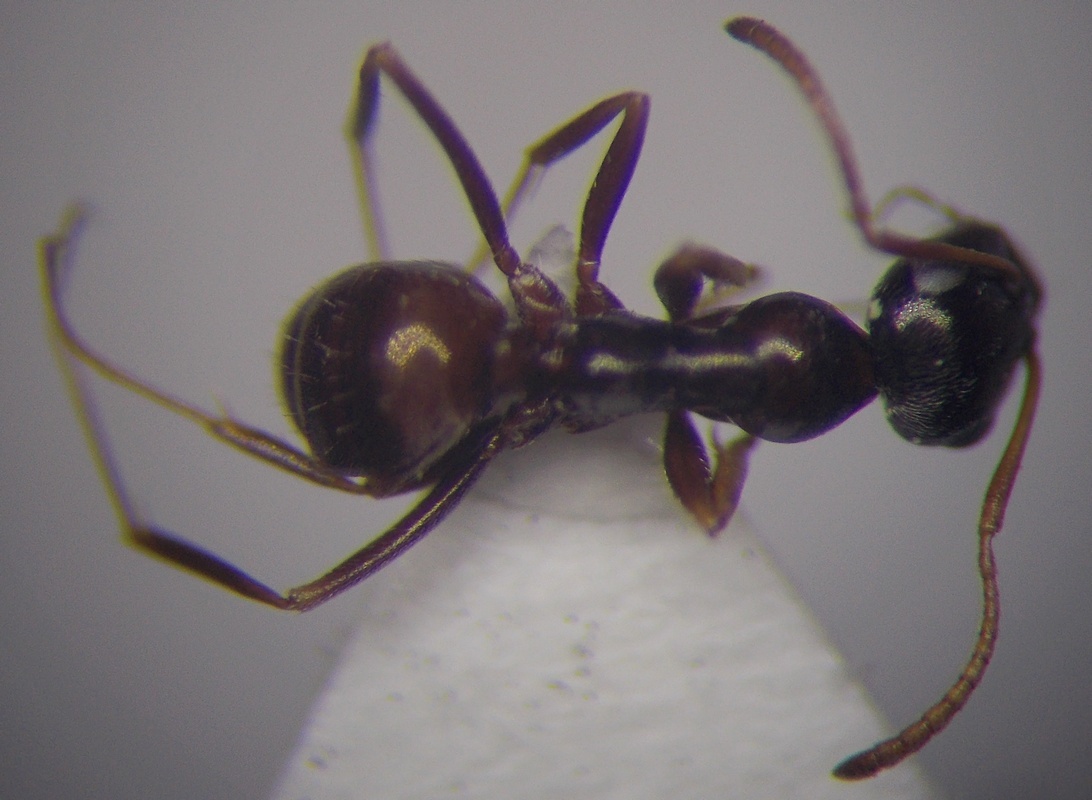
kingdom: Animalia
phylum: Arthropoda
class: Insecta
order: Hymenoptera
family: Formicidae
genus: Proformica
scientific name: Proformica epinotalis
